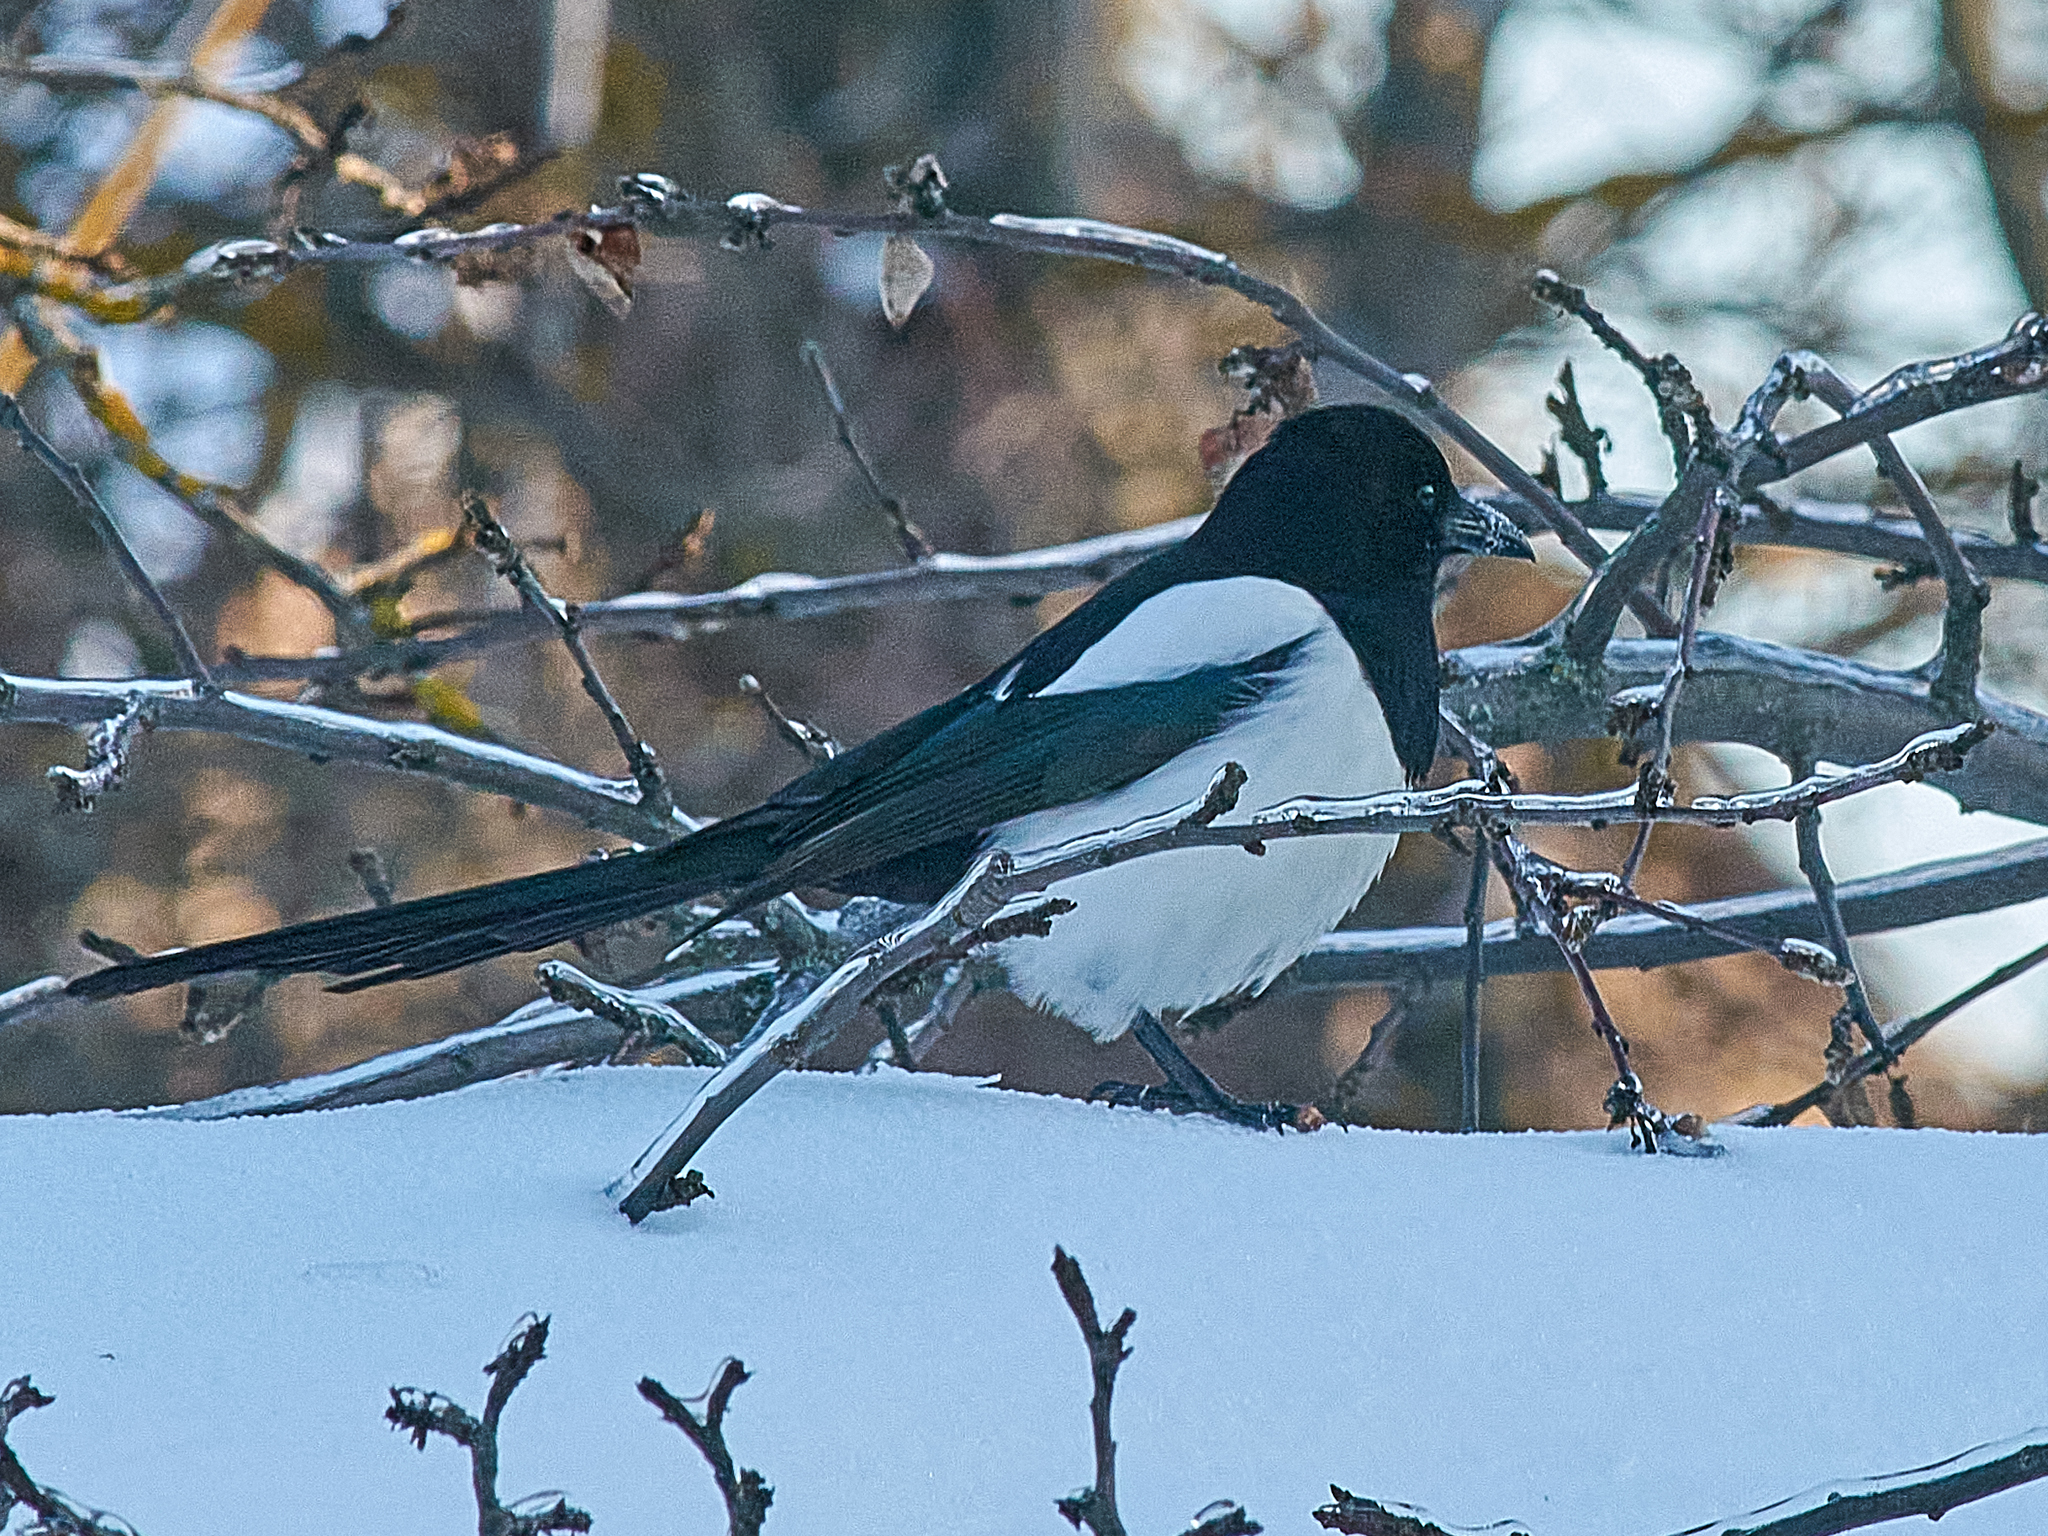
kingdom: Animalia
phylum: Chordata
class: Aves
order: Passeriformes
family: Corvidae
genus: Pica
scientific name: Pica pica
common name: Eurasian magpie
